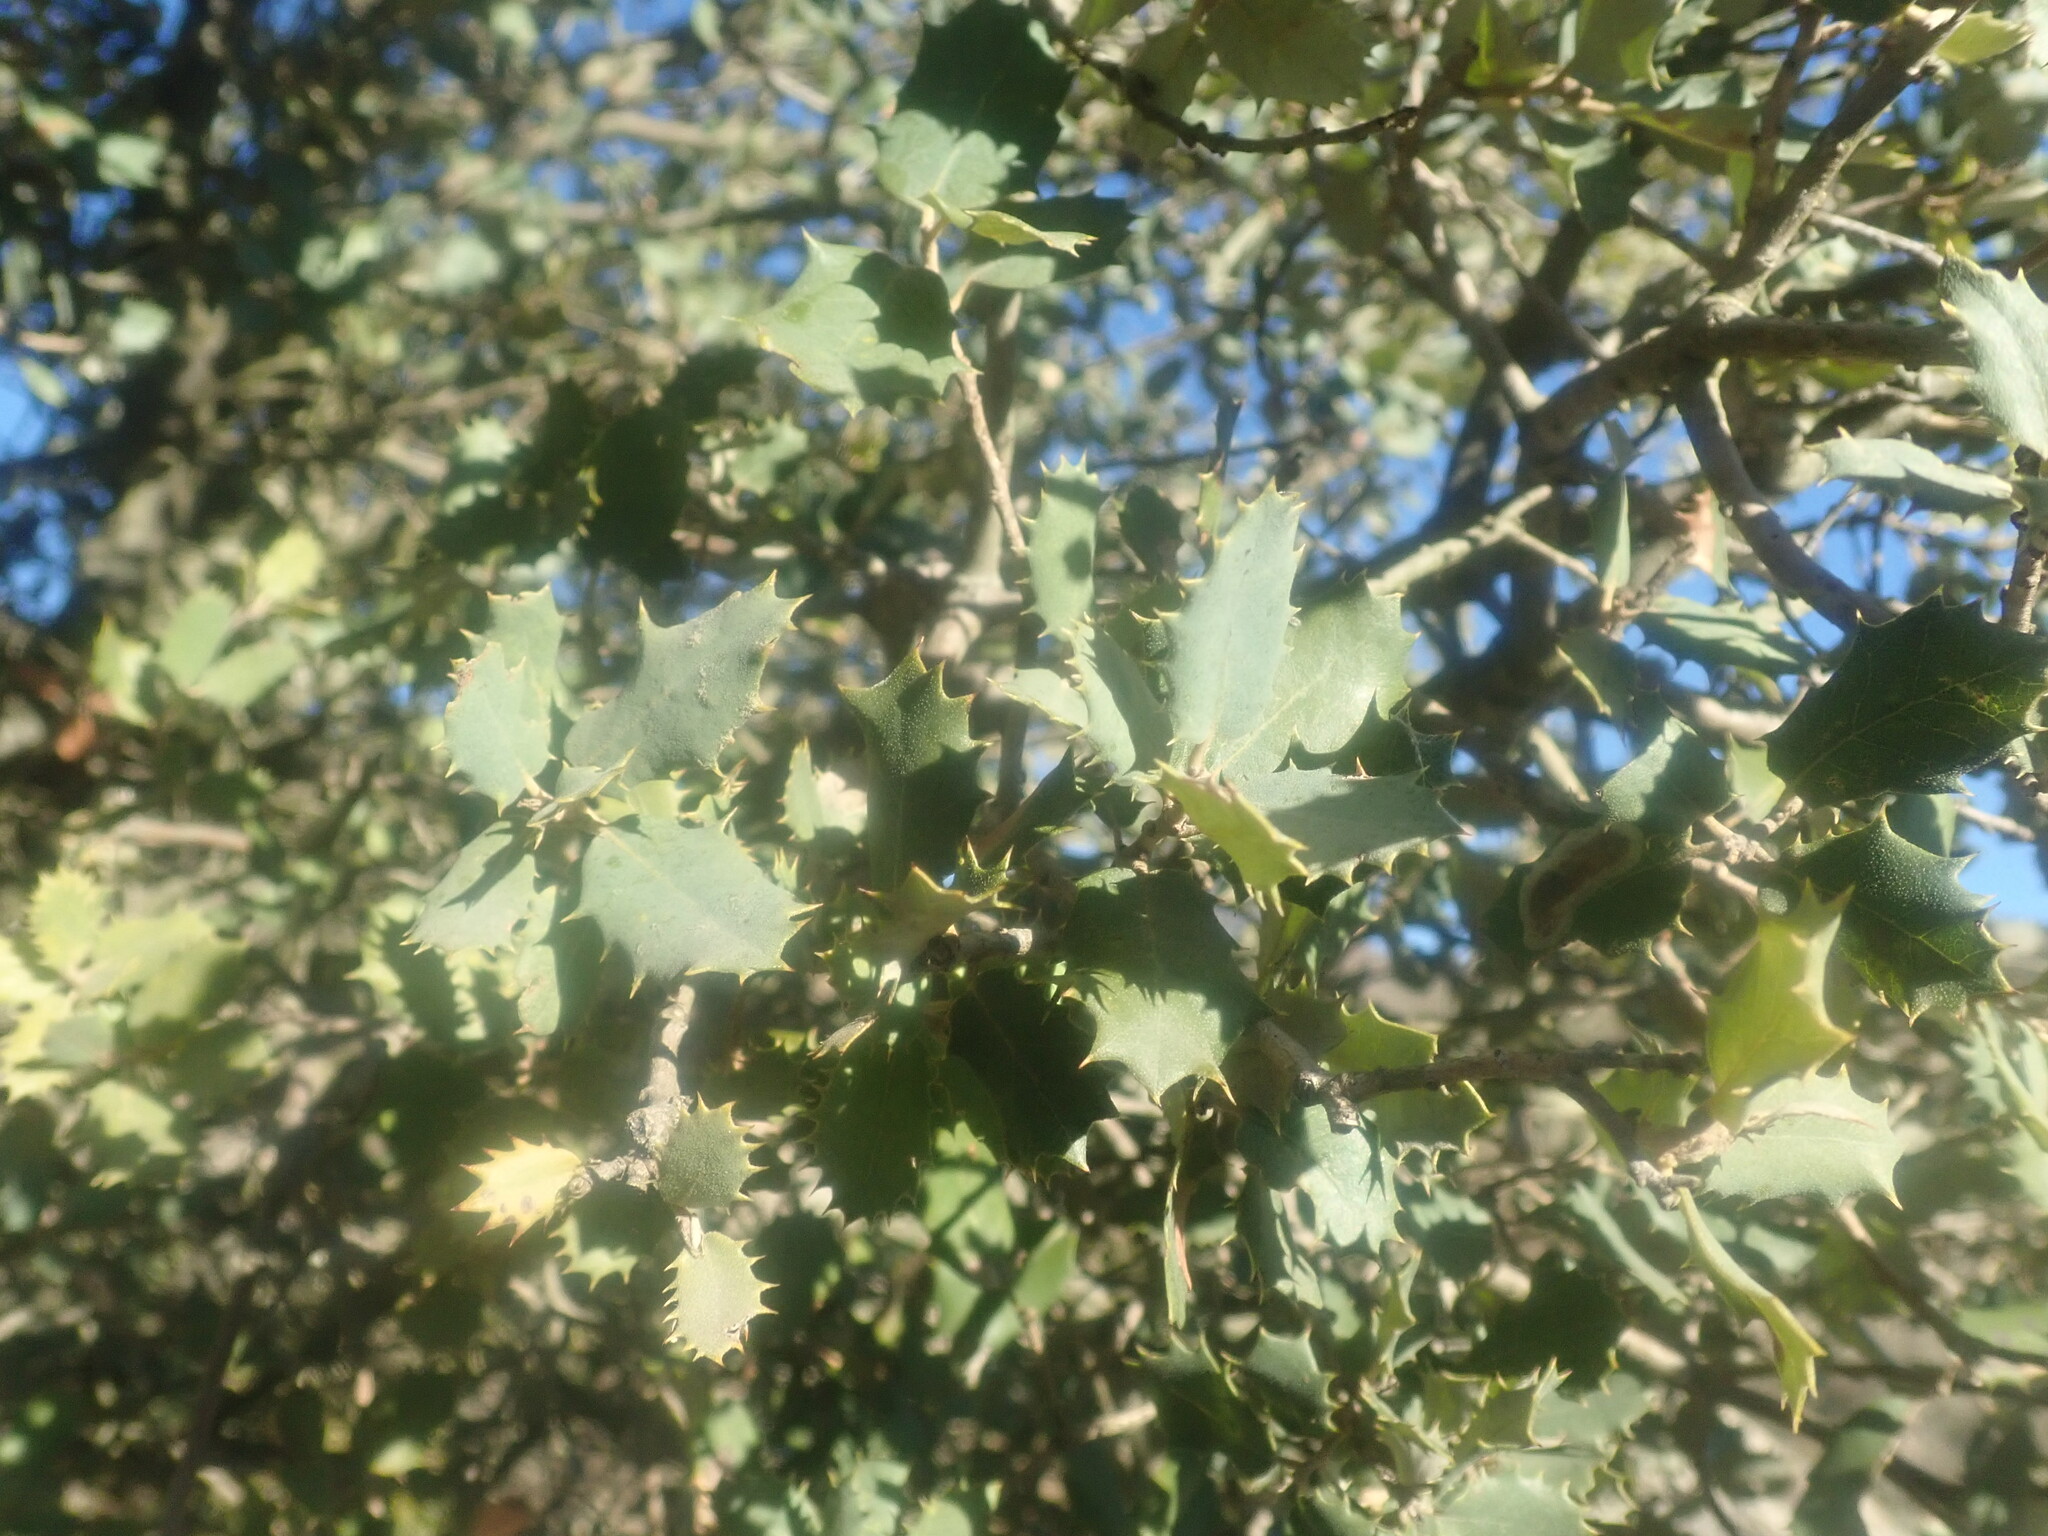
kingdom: Plantae
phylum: Tracheophyta
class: Magnoliopsida
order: Fagales
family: Fagaceae
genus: Quercus
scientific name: Quercus rotundifolia
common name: Holm oak
